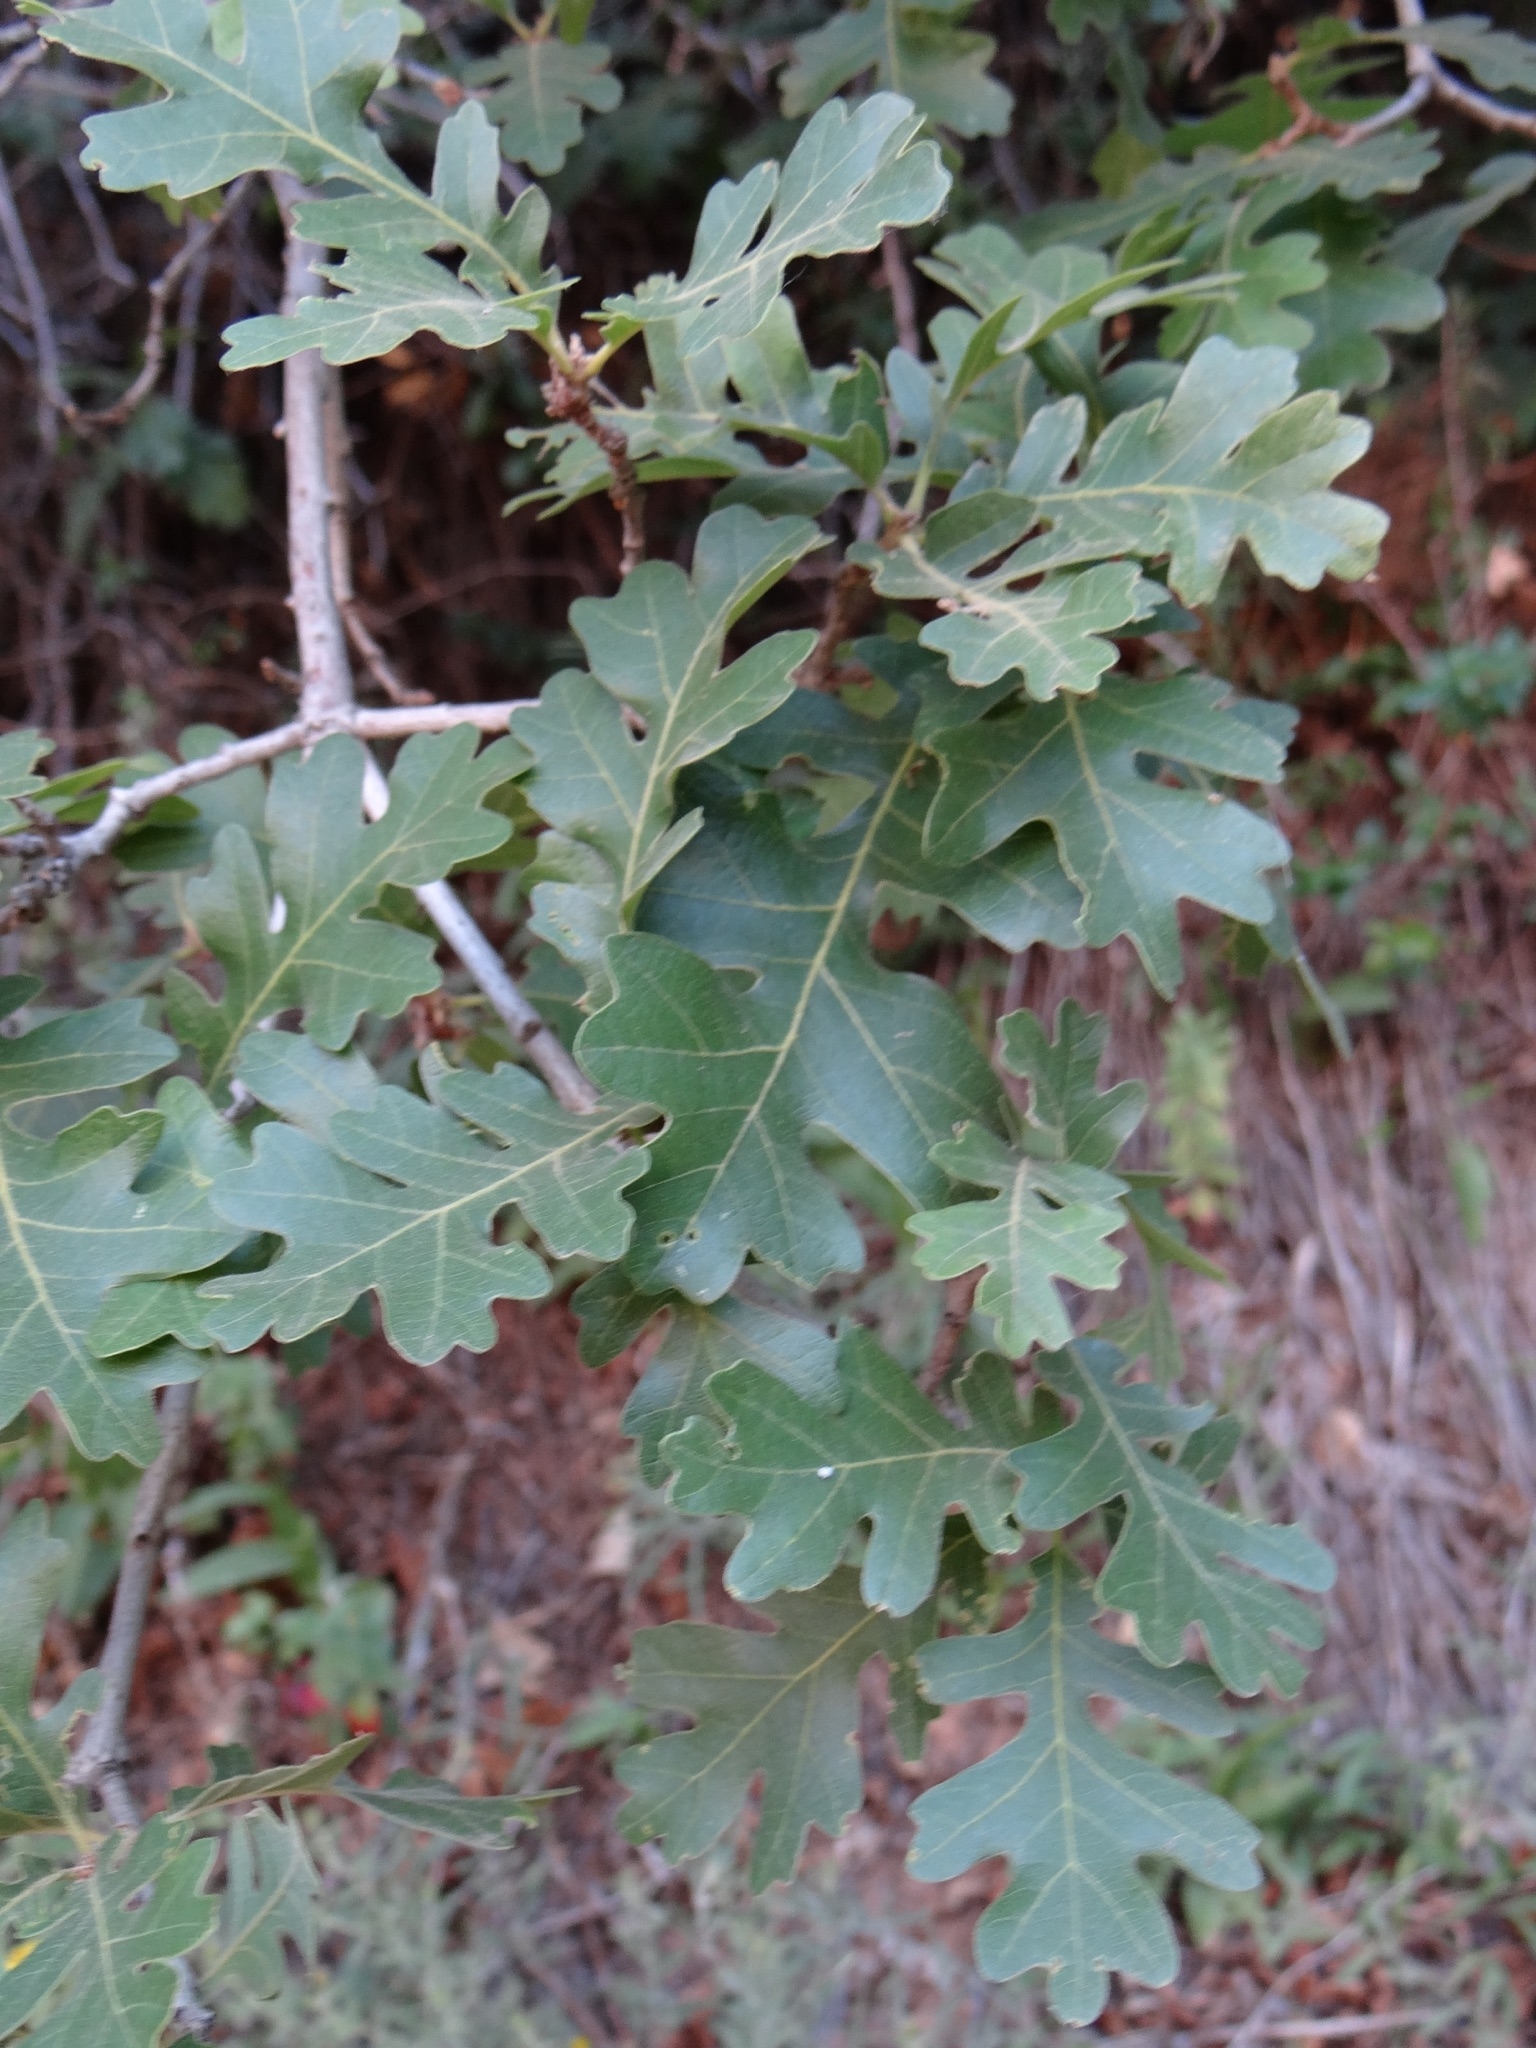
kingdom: Plantae
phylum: Tracheophyta
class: Magnoliopsida
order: Fagales
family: Fagaceae
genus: Quercus
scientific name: Quercus gambelii
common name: Gambel oak
